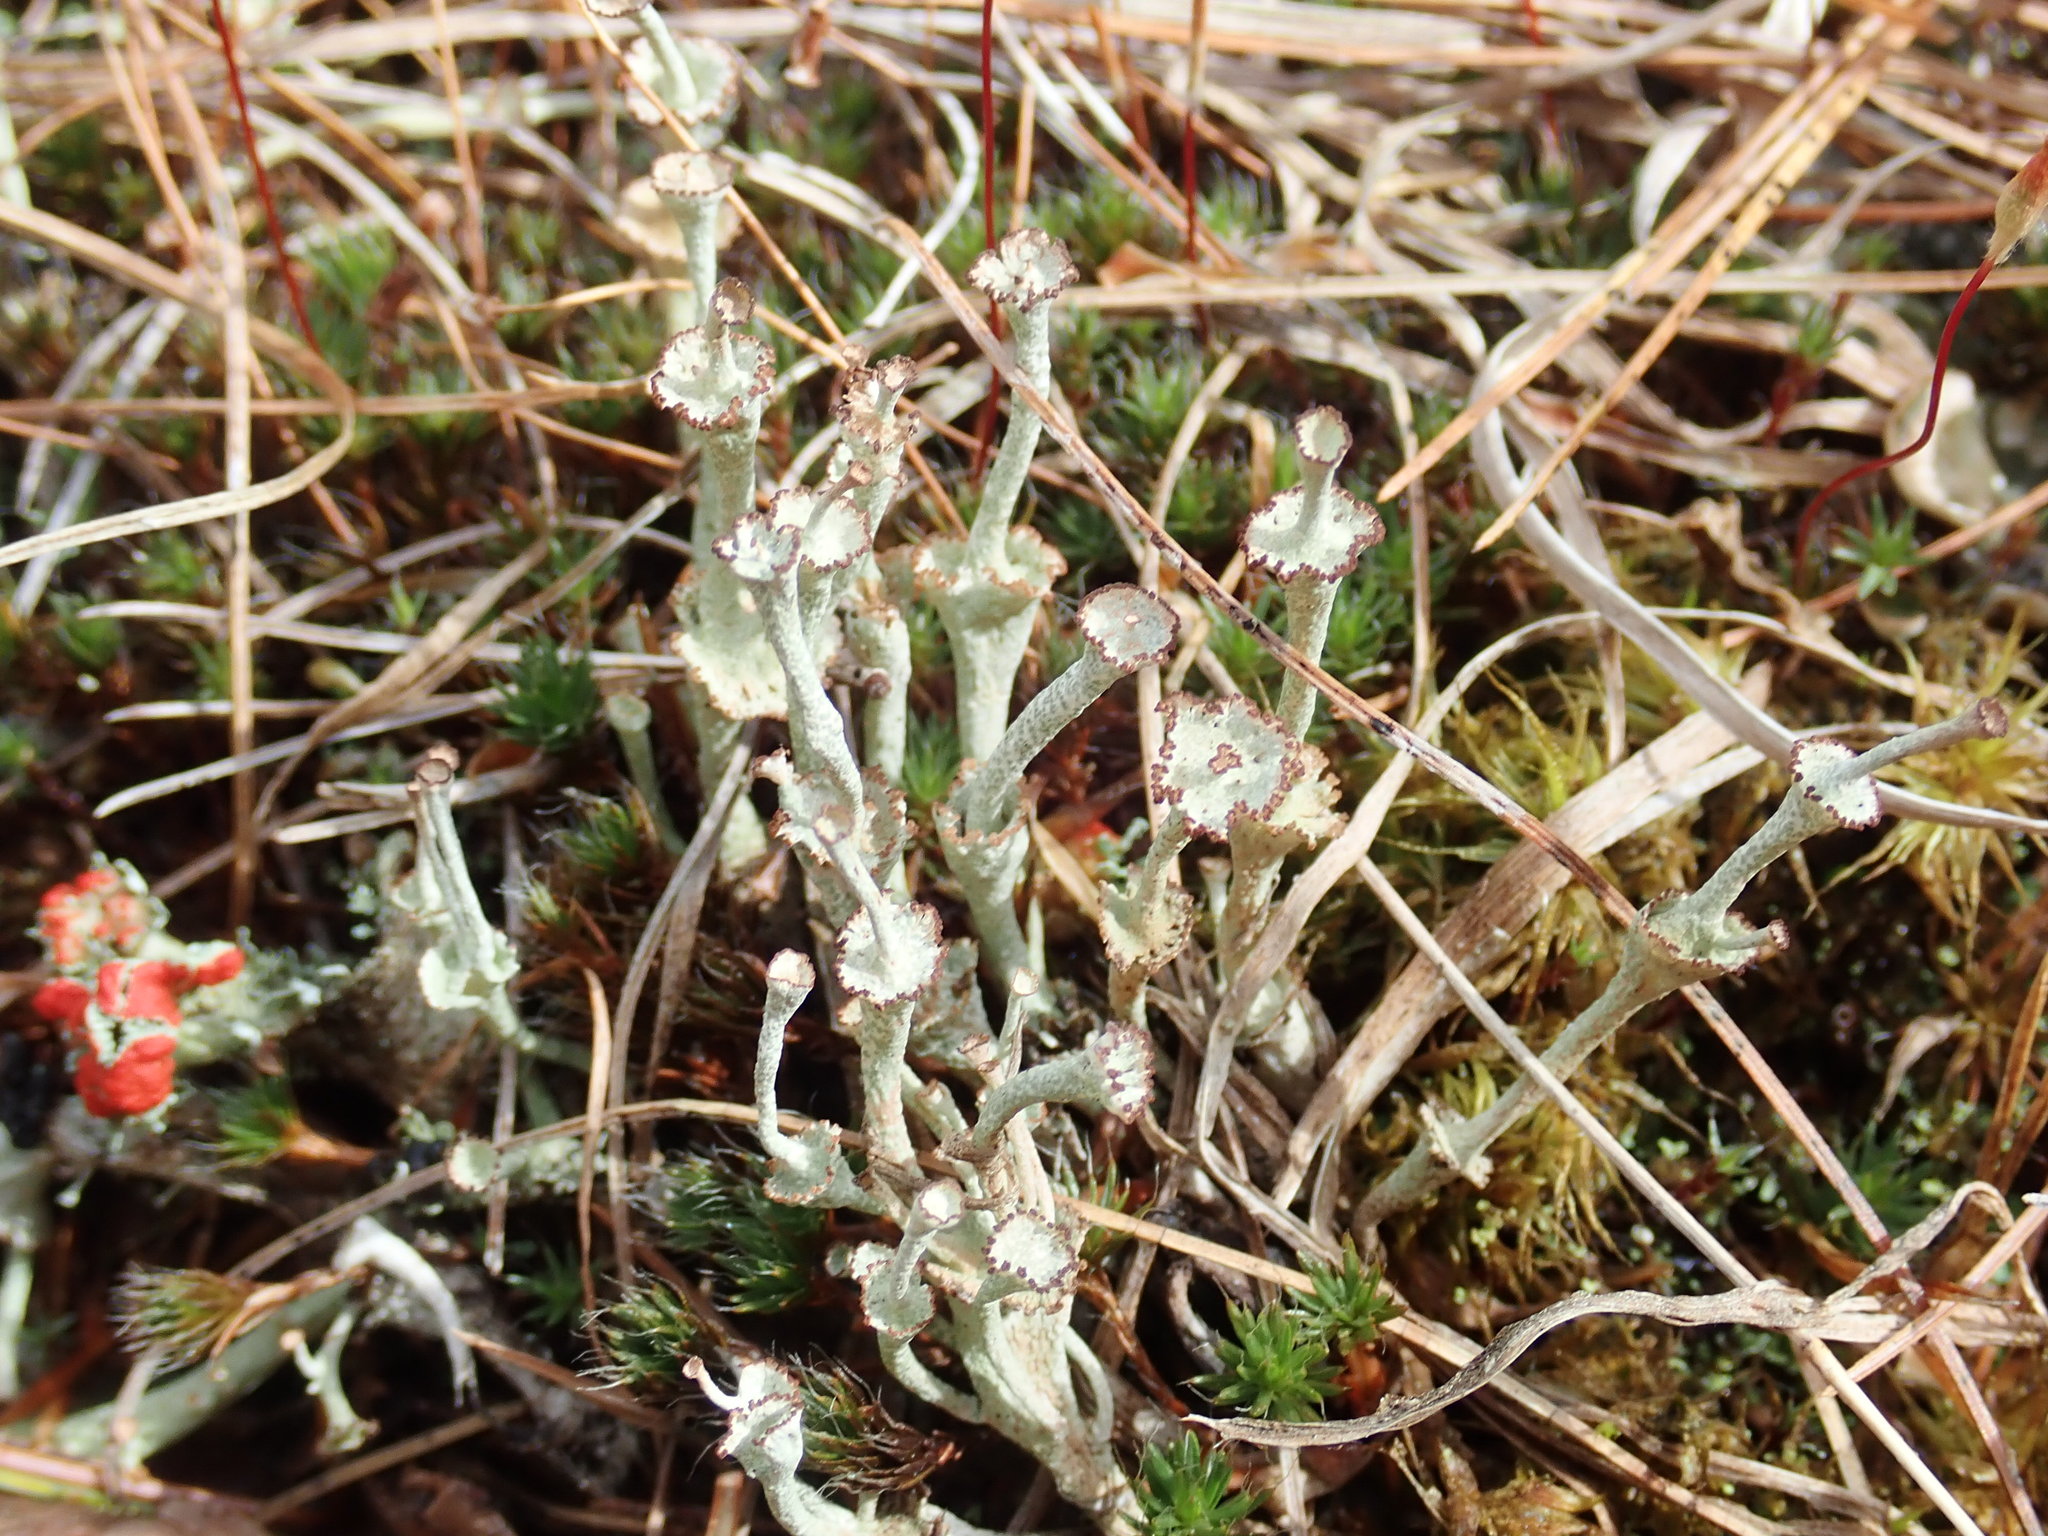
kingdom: Fungi
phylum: Ascomycota
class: Lecanoromycetes
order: Lecanorales
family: Cladoniaceae
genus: Cladonia
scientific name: Cladonia cervicornis
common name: Browned pixie-cup lichen
